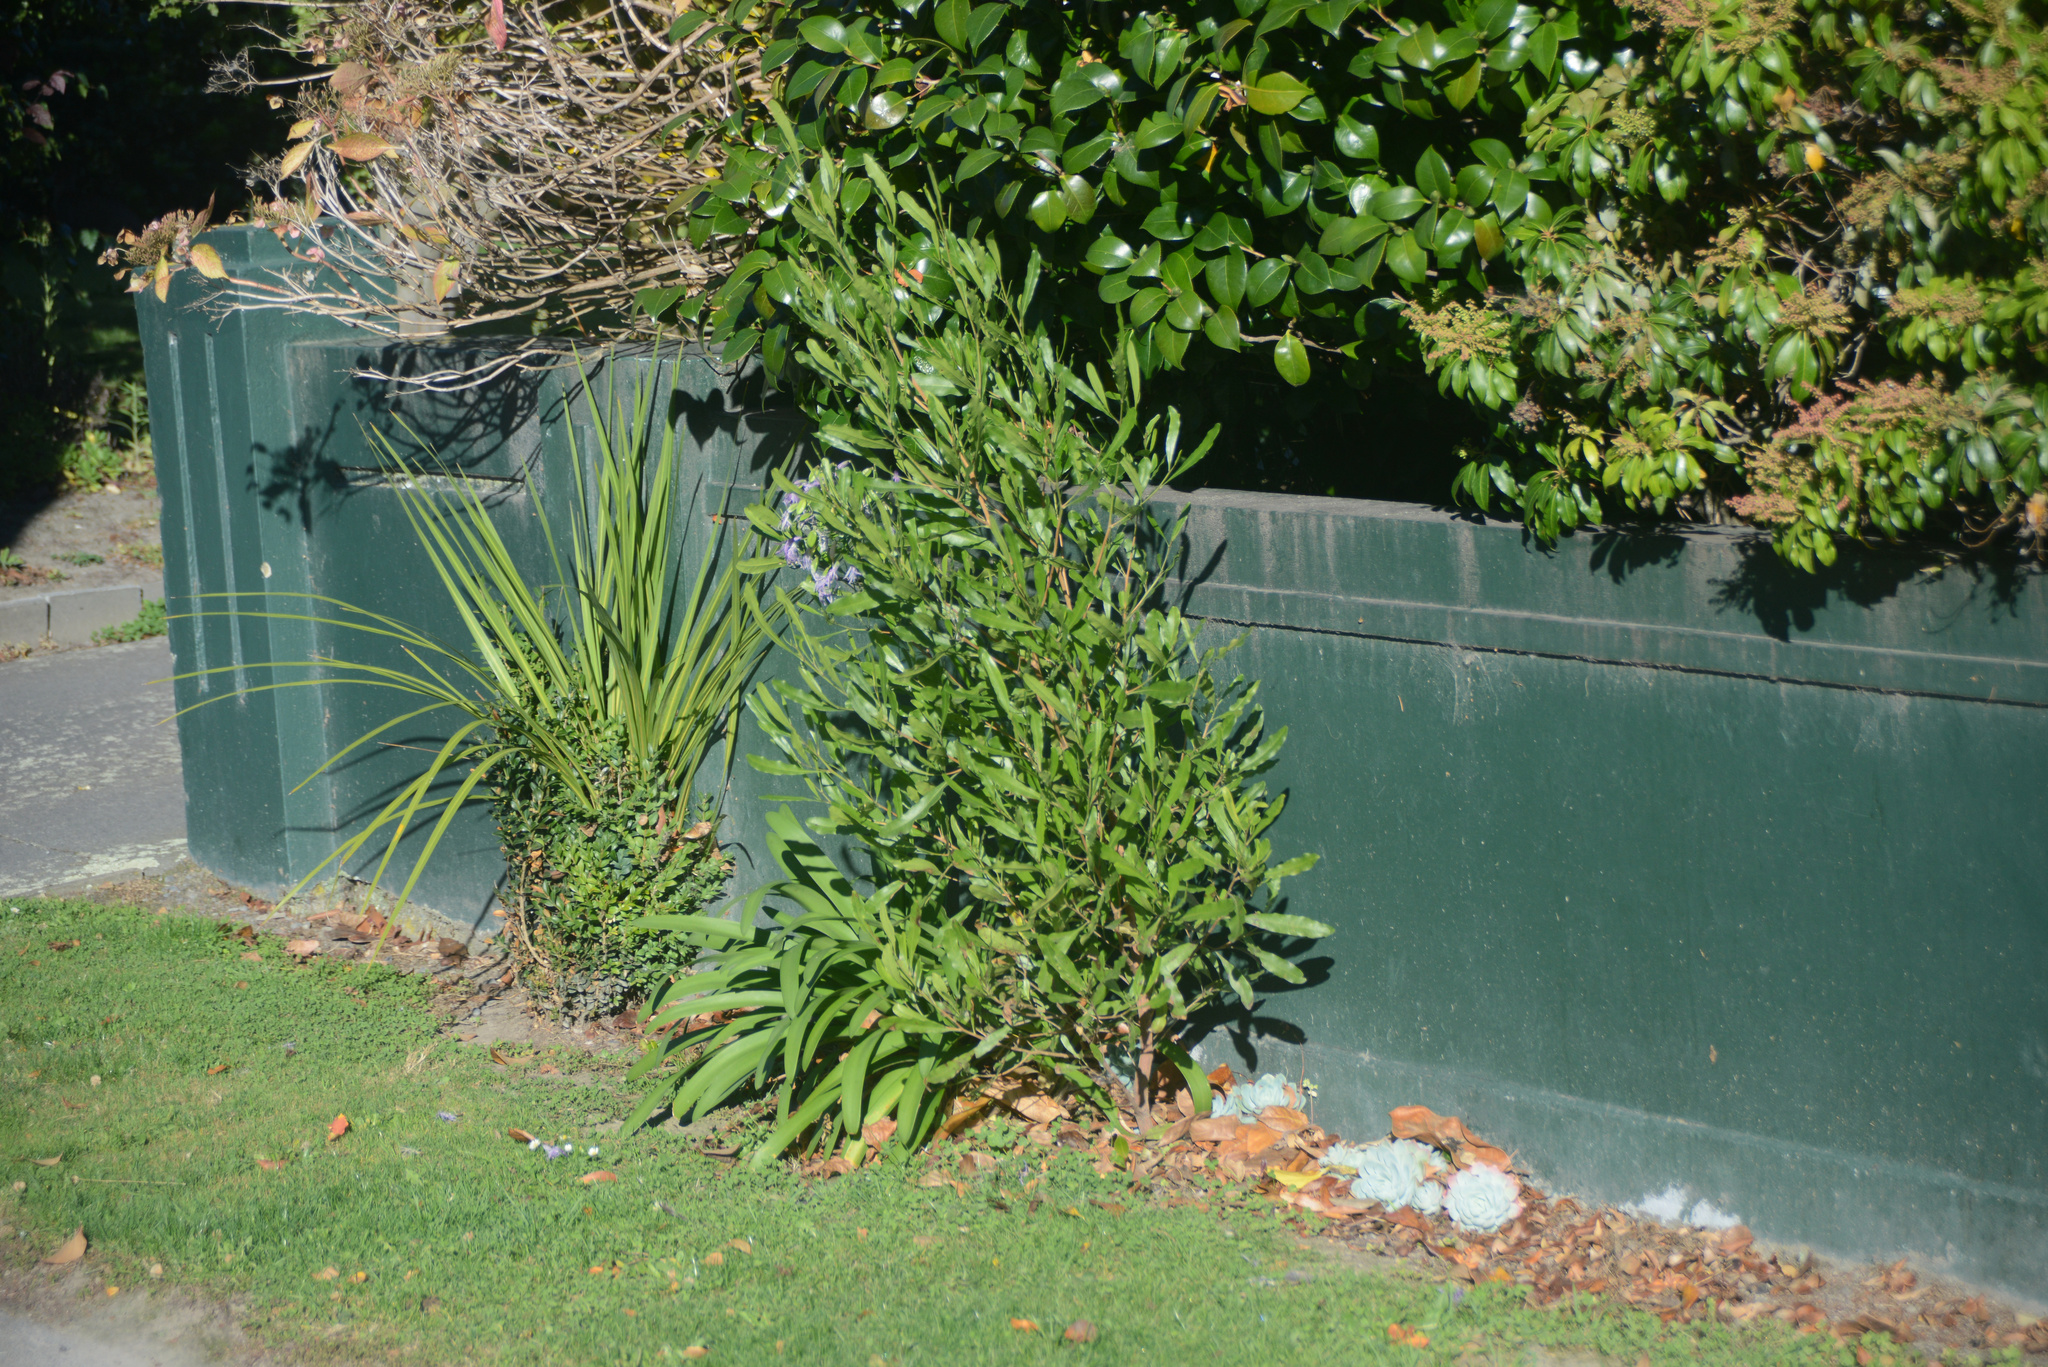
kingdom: Plantae
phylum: Tracheophyta
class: Magnoliopsida
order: Sapindales
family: Sapindaceae
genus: Dodonaea
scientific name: Dodonaea viscosa
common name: Hopbush
